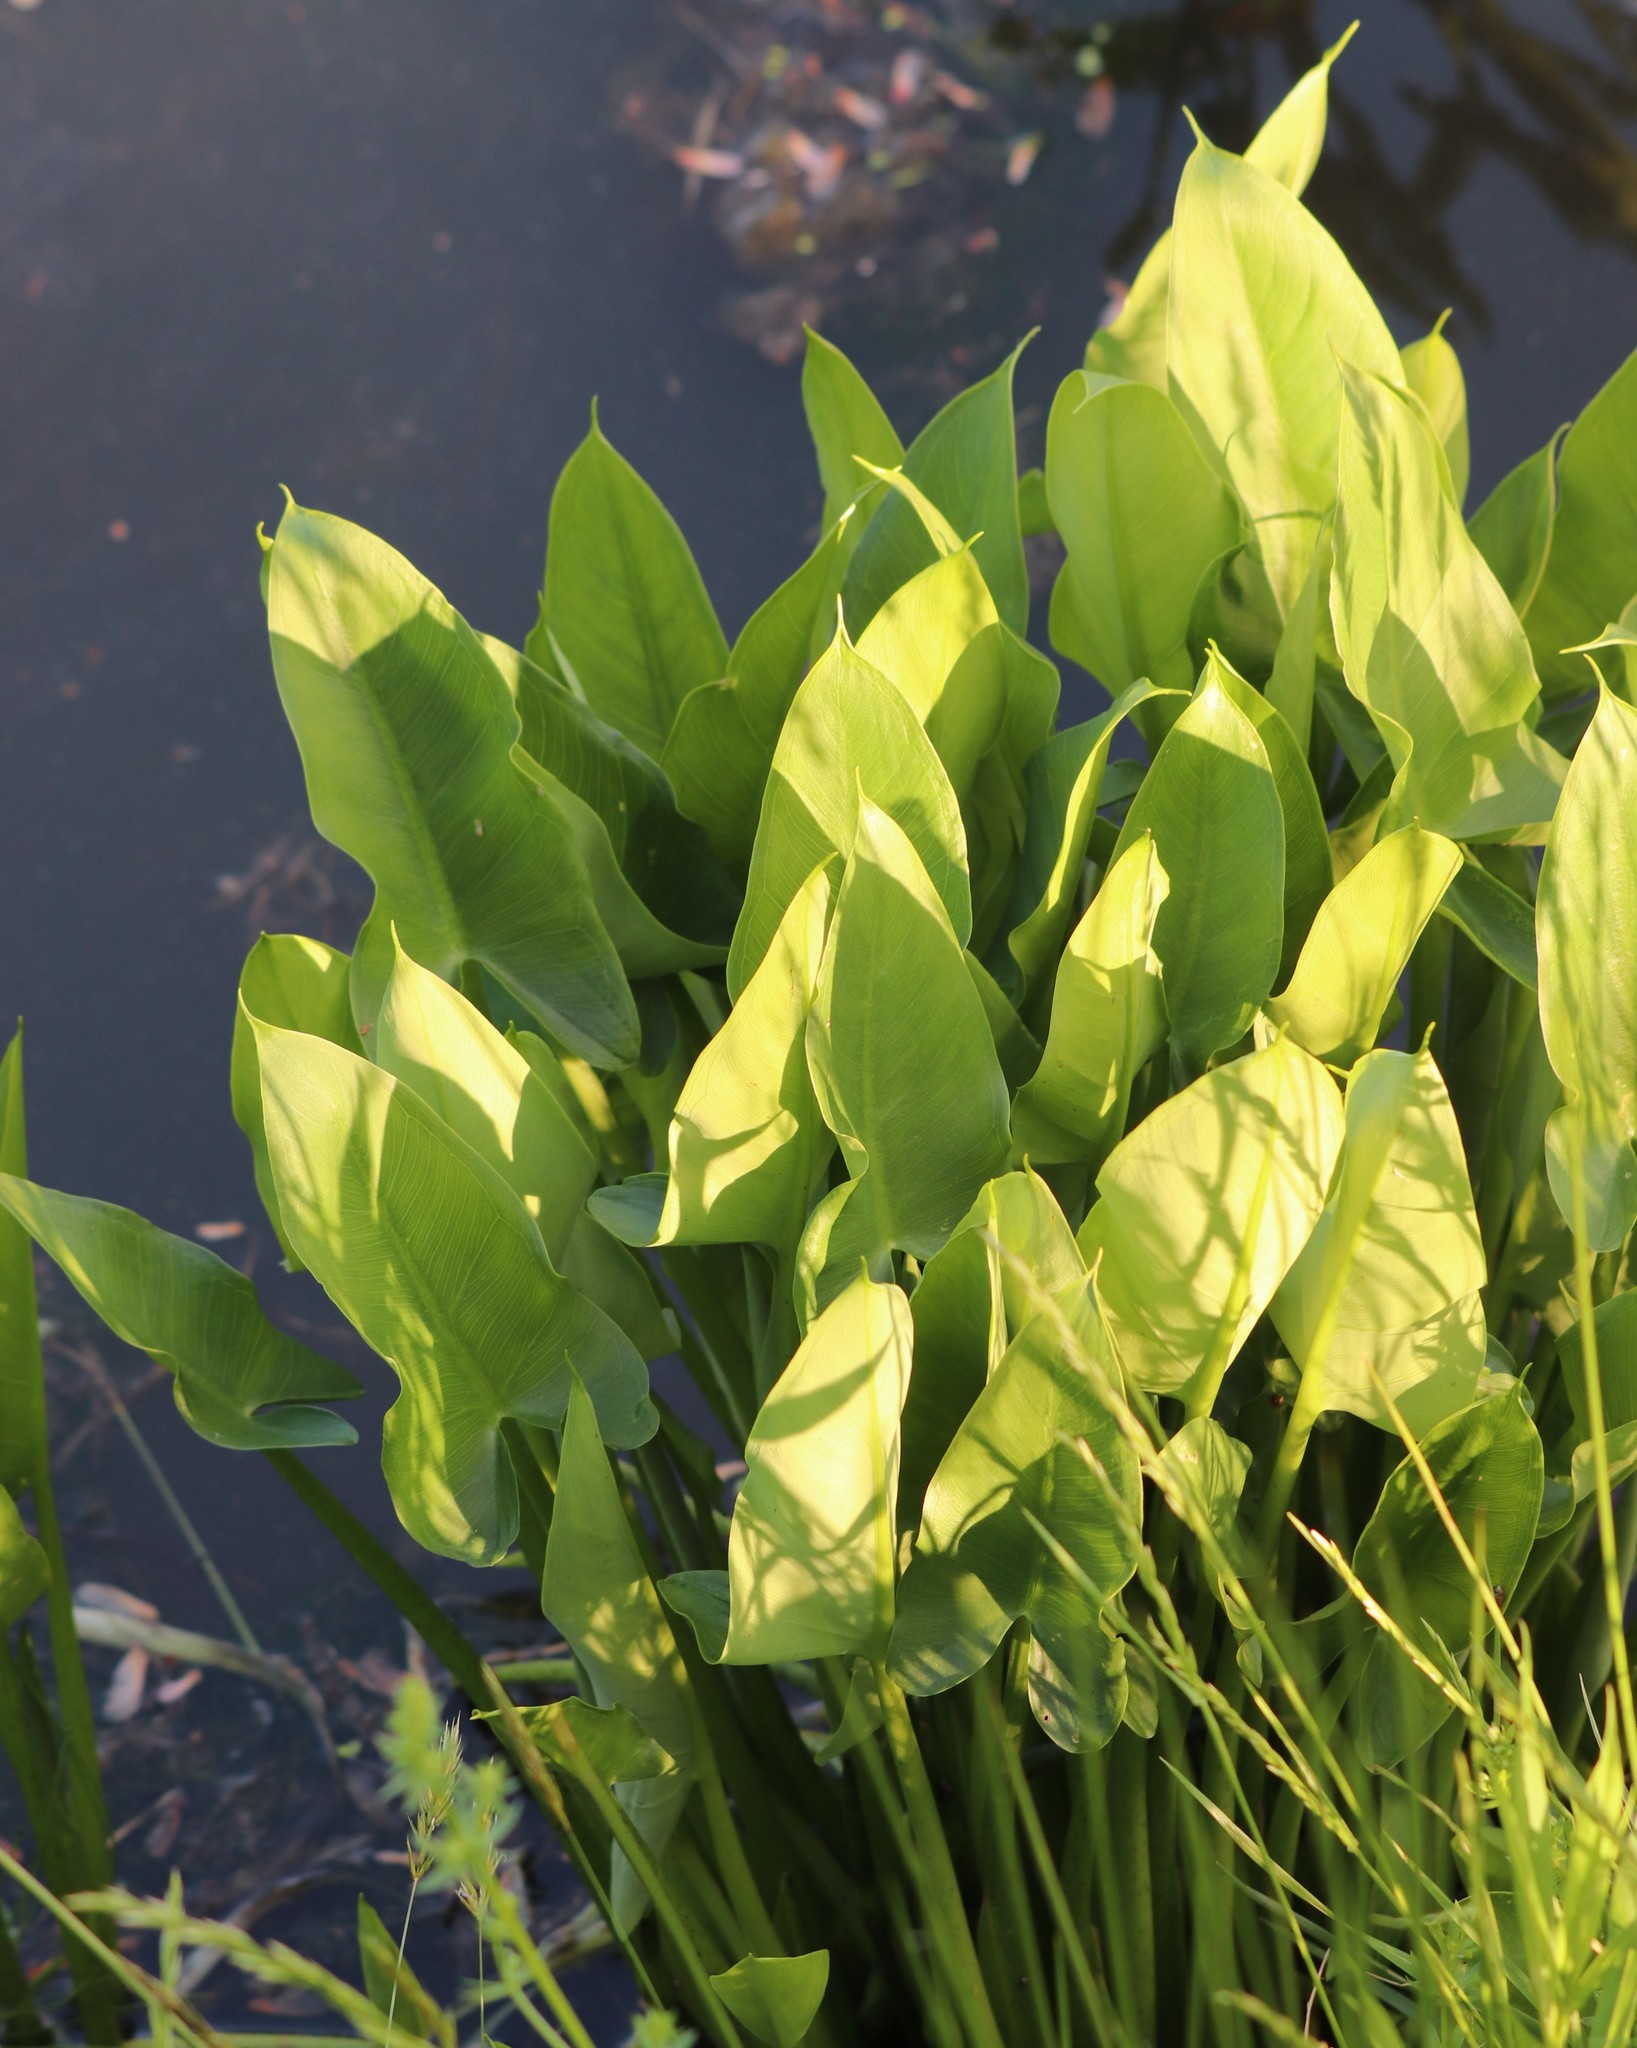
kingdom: Plantae
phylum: Tracheophyta
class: Liliopsida
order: Alismatales
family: Araceae
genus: Peltandra
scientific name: Peltandra virginica
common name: Arrow arum
